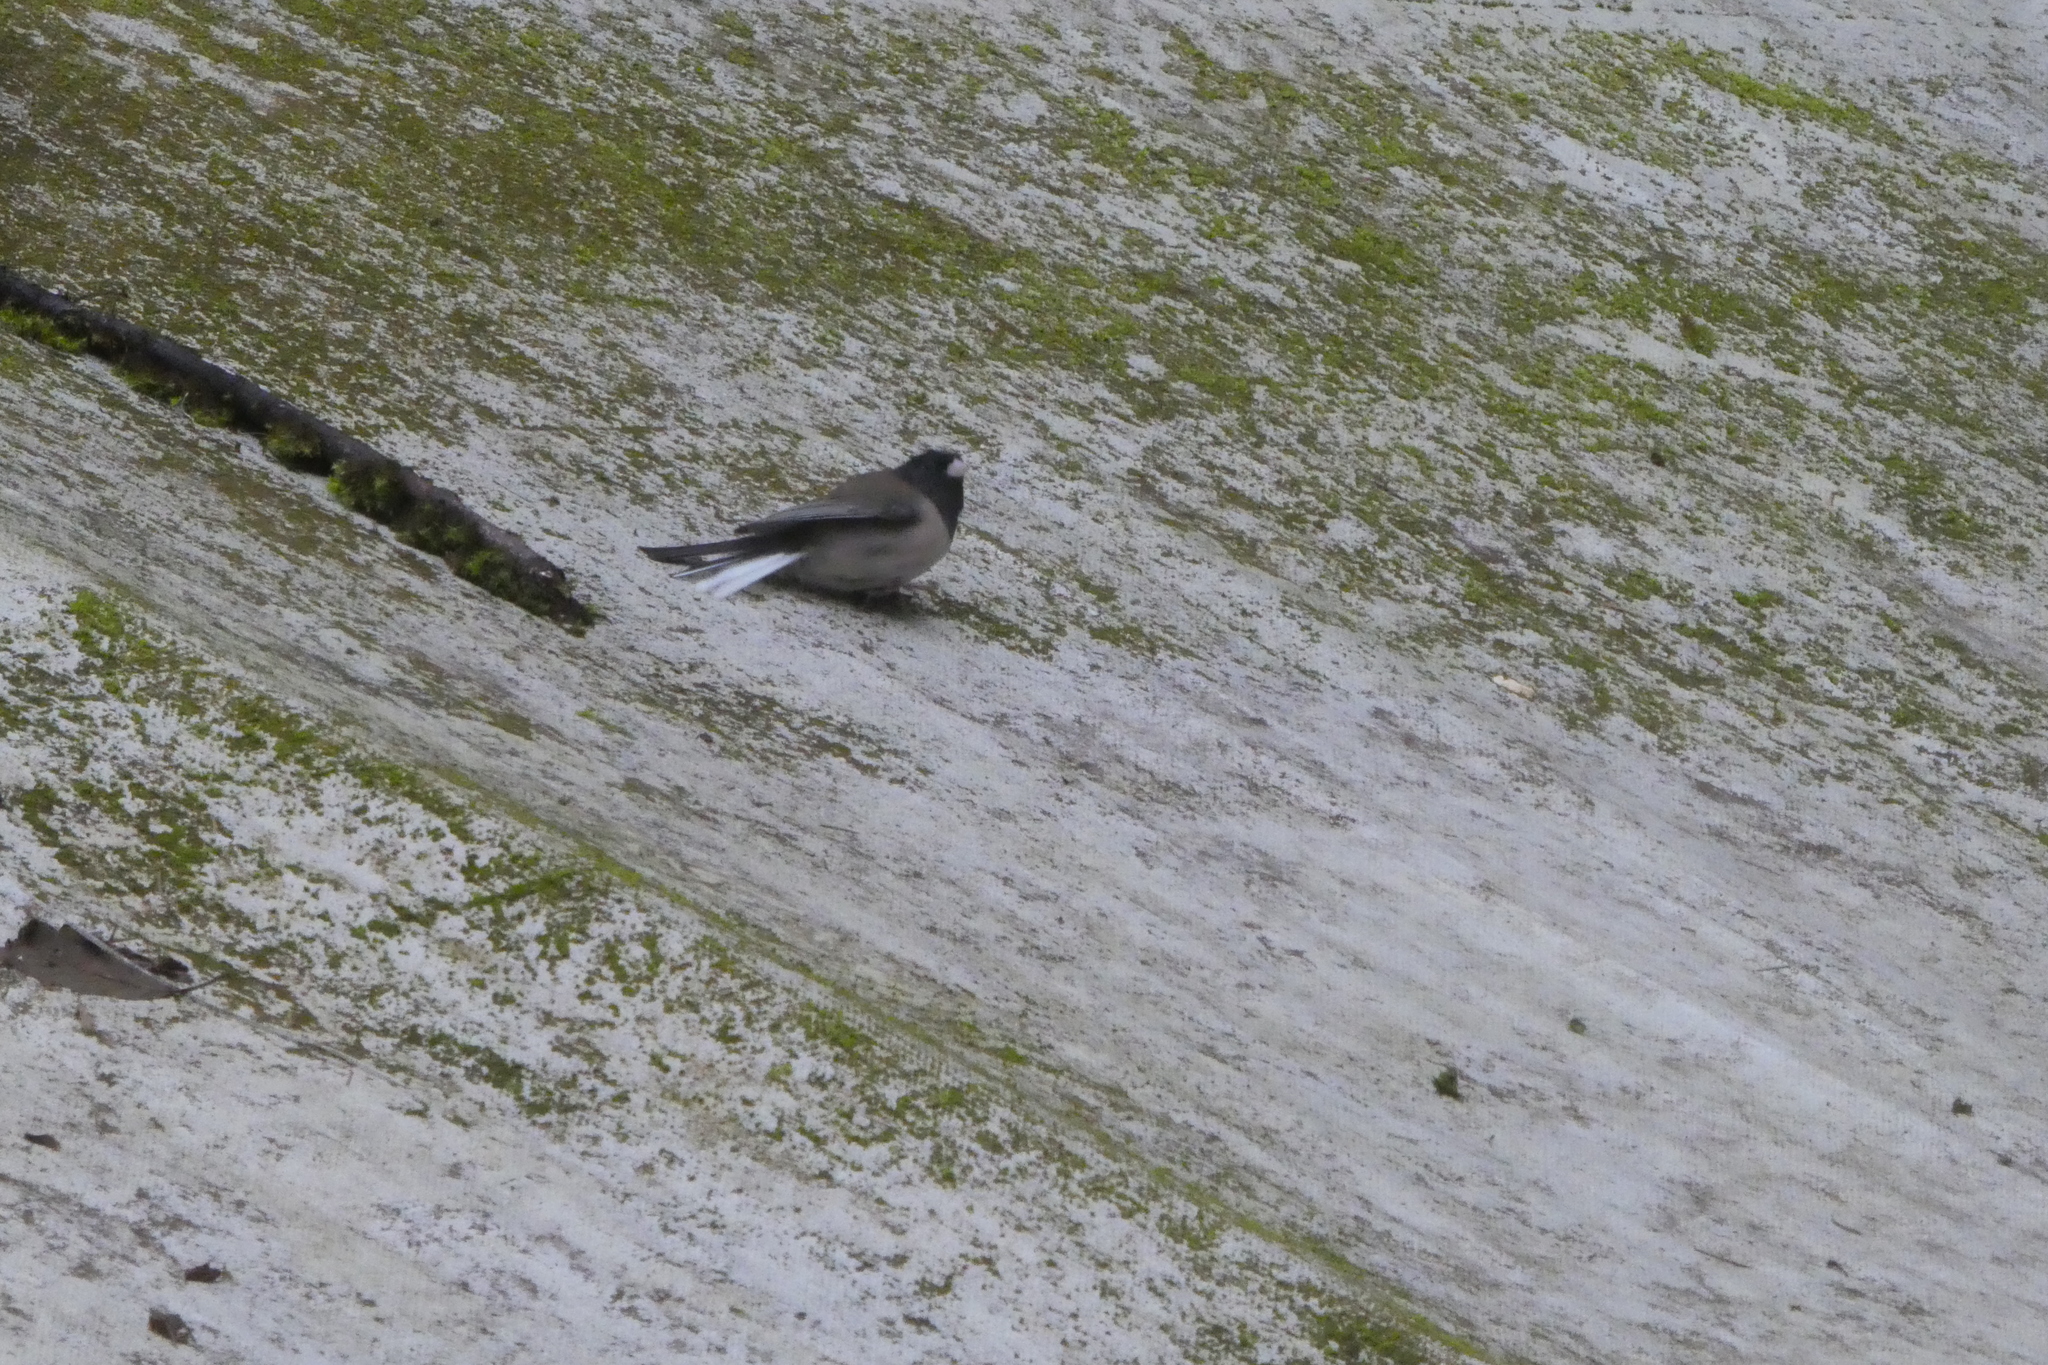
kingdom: Animalia
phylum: Chordata
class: Aves
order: Passeriformes
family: Passerellidae
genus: Junco
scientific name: Junco hyemalis
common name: Dark-eyed junco
